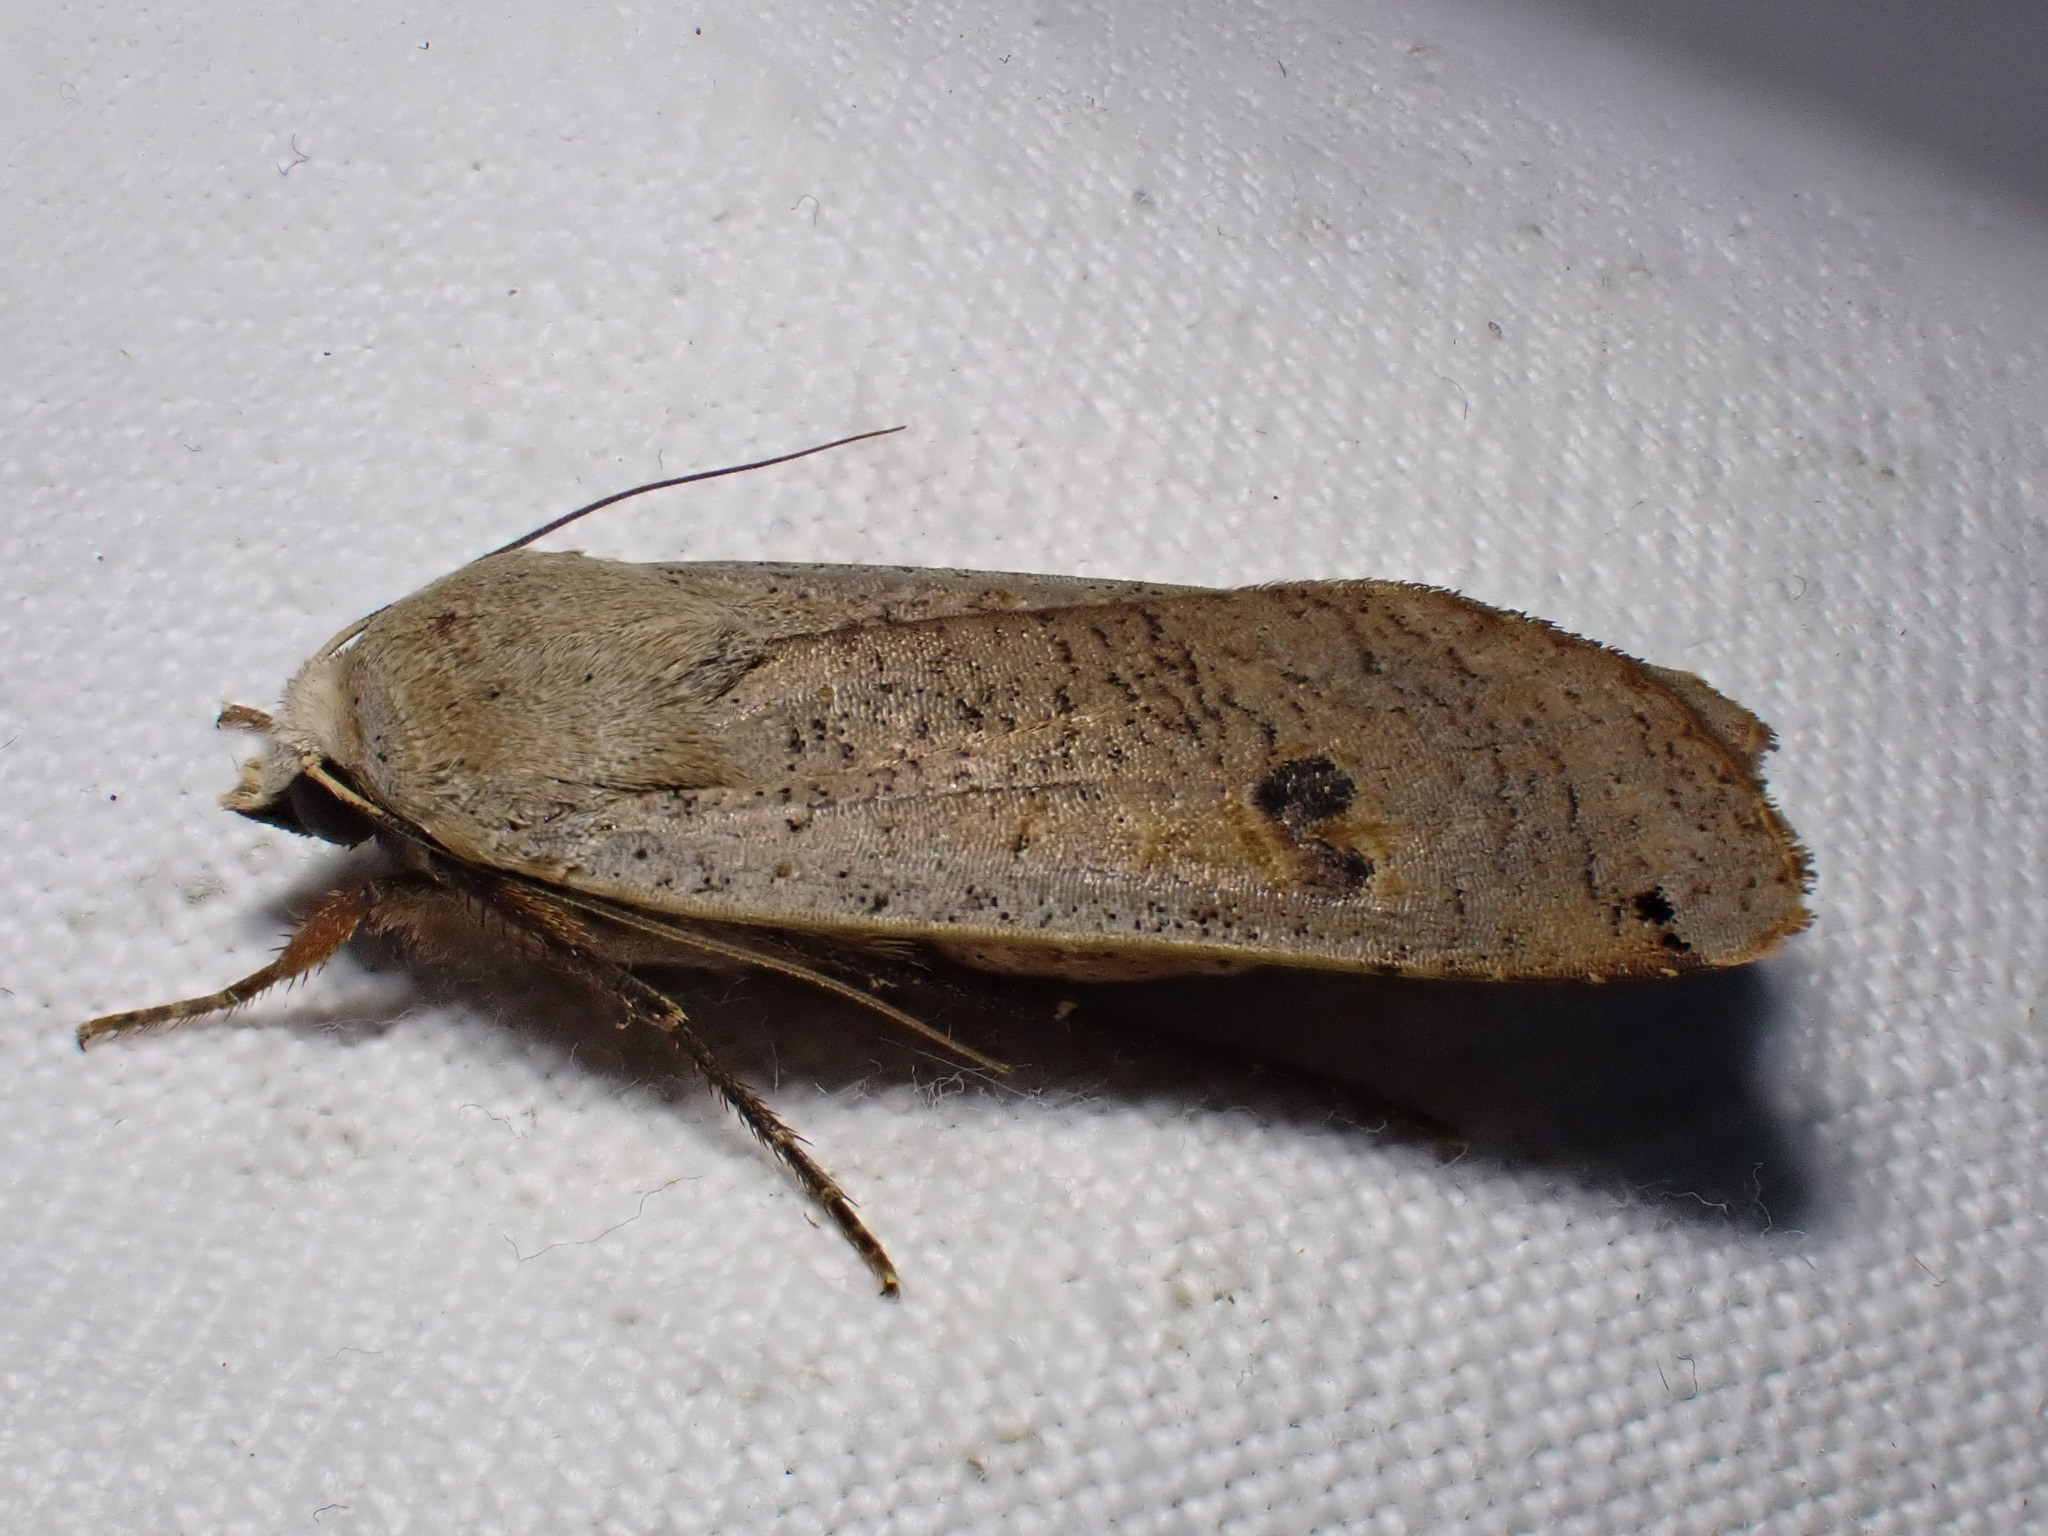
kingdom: Animalia
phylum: Arthropoda
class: Insecta
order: Lepidoptera
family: Noctuidae
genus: Noctua
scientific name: Noctua pronuba
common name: Large yellow underwing
